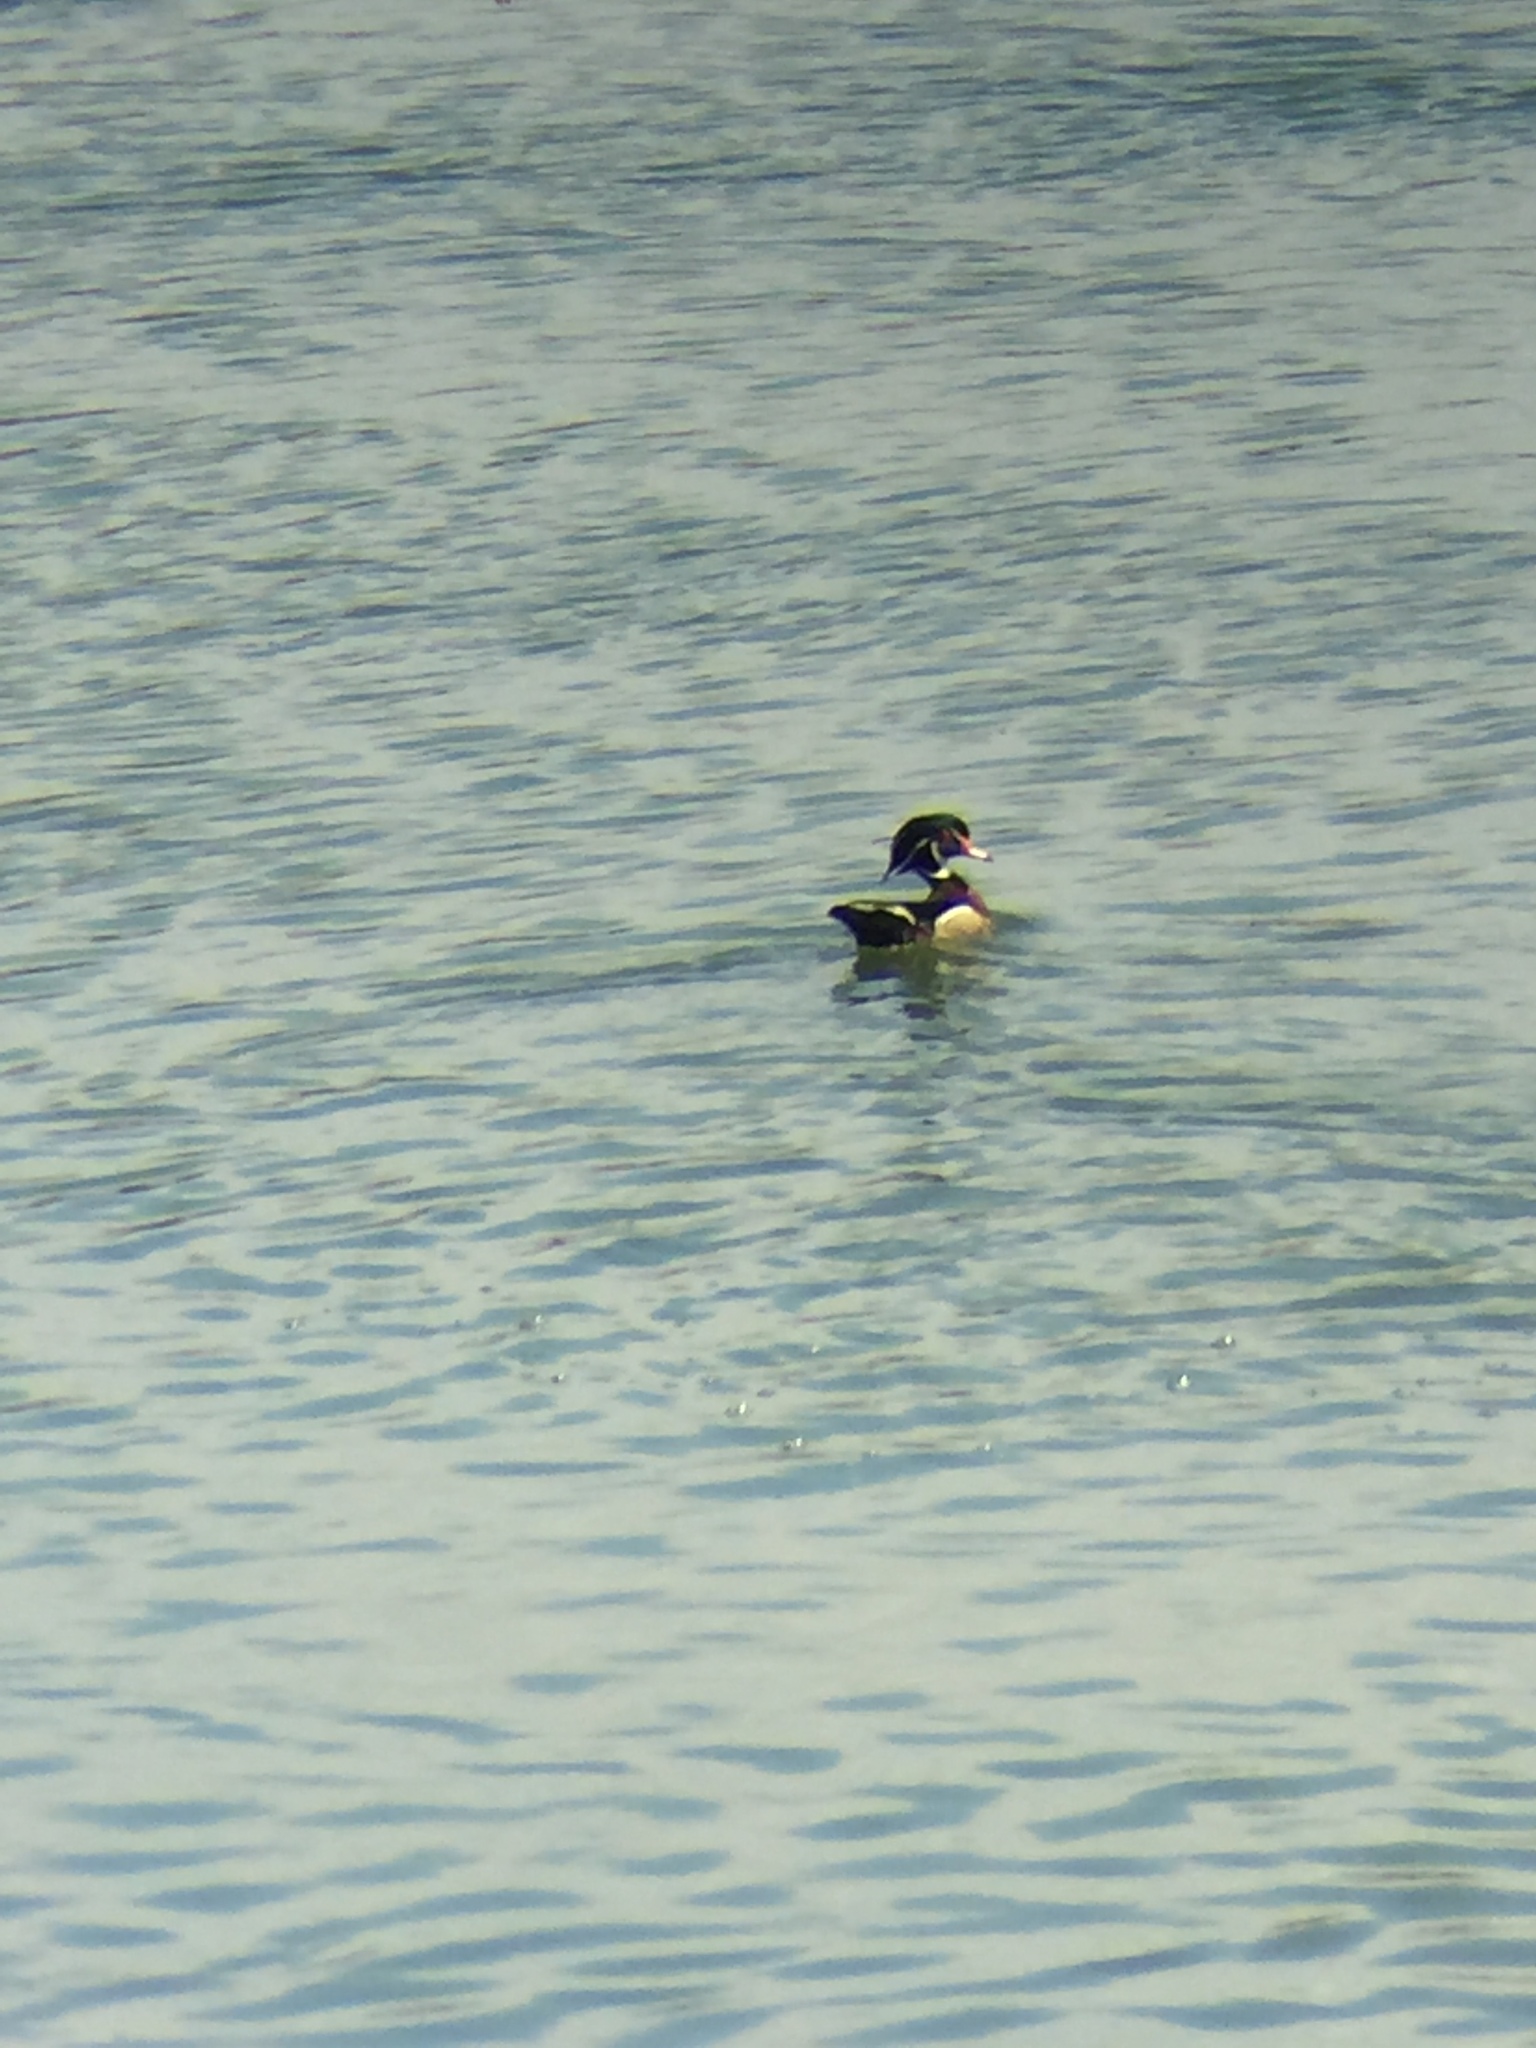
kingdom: Animalia
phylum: Chordata
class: Aves
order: Anseriformes
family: Anatidae
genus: Aix
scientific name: Aix sponsa
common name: Wood duck
